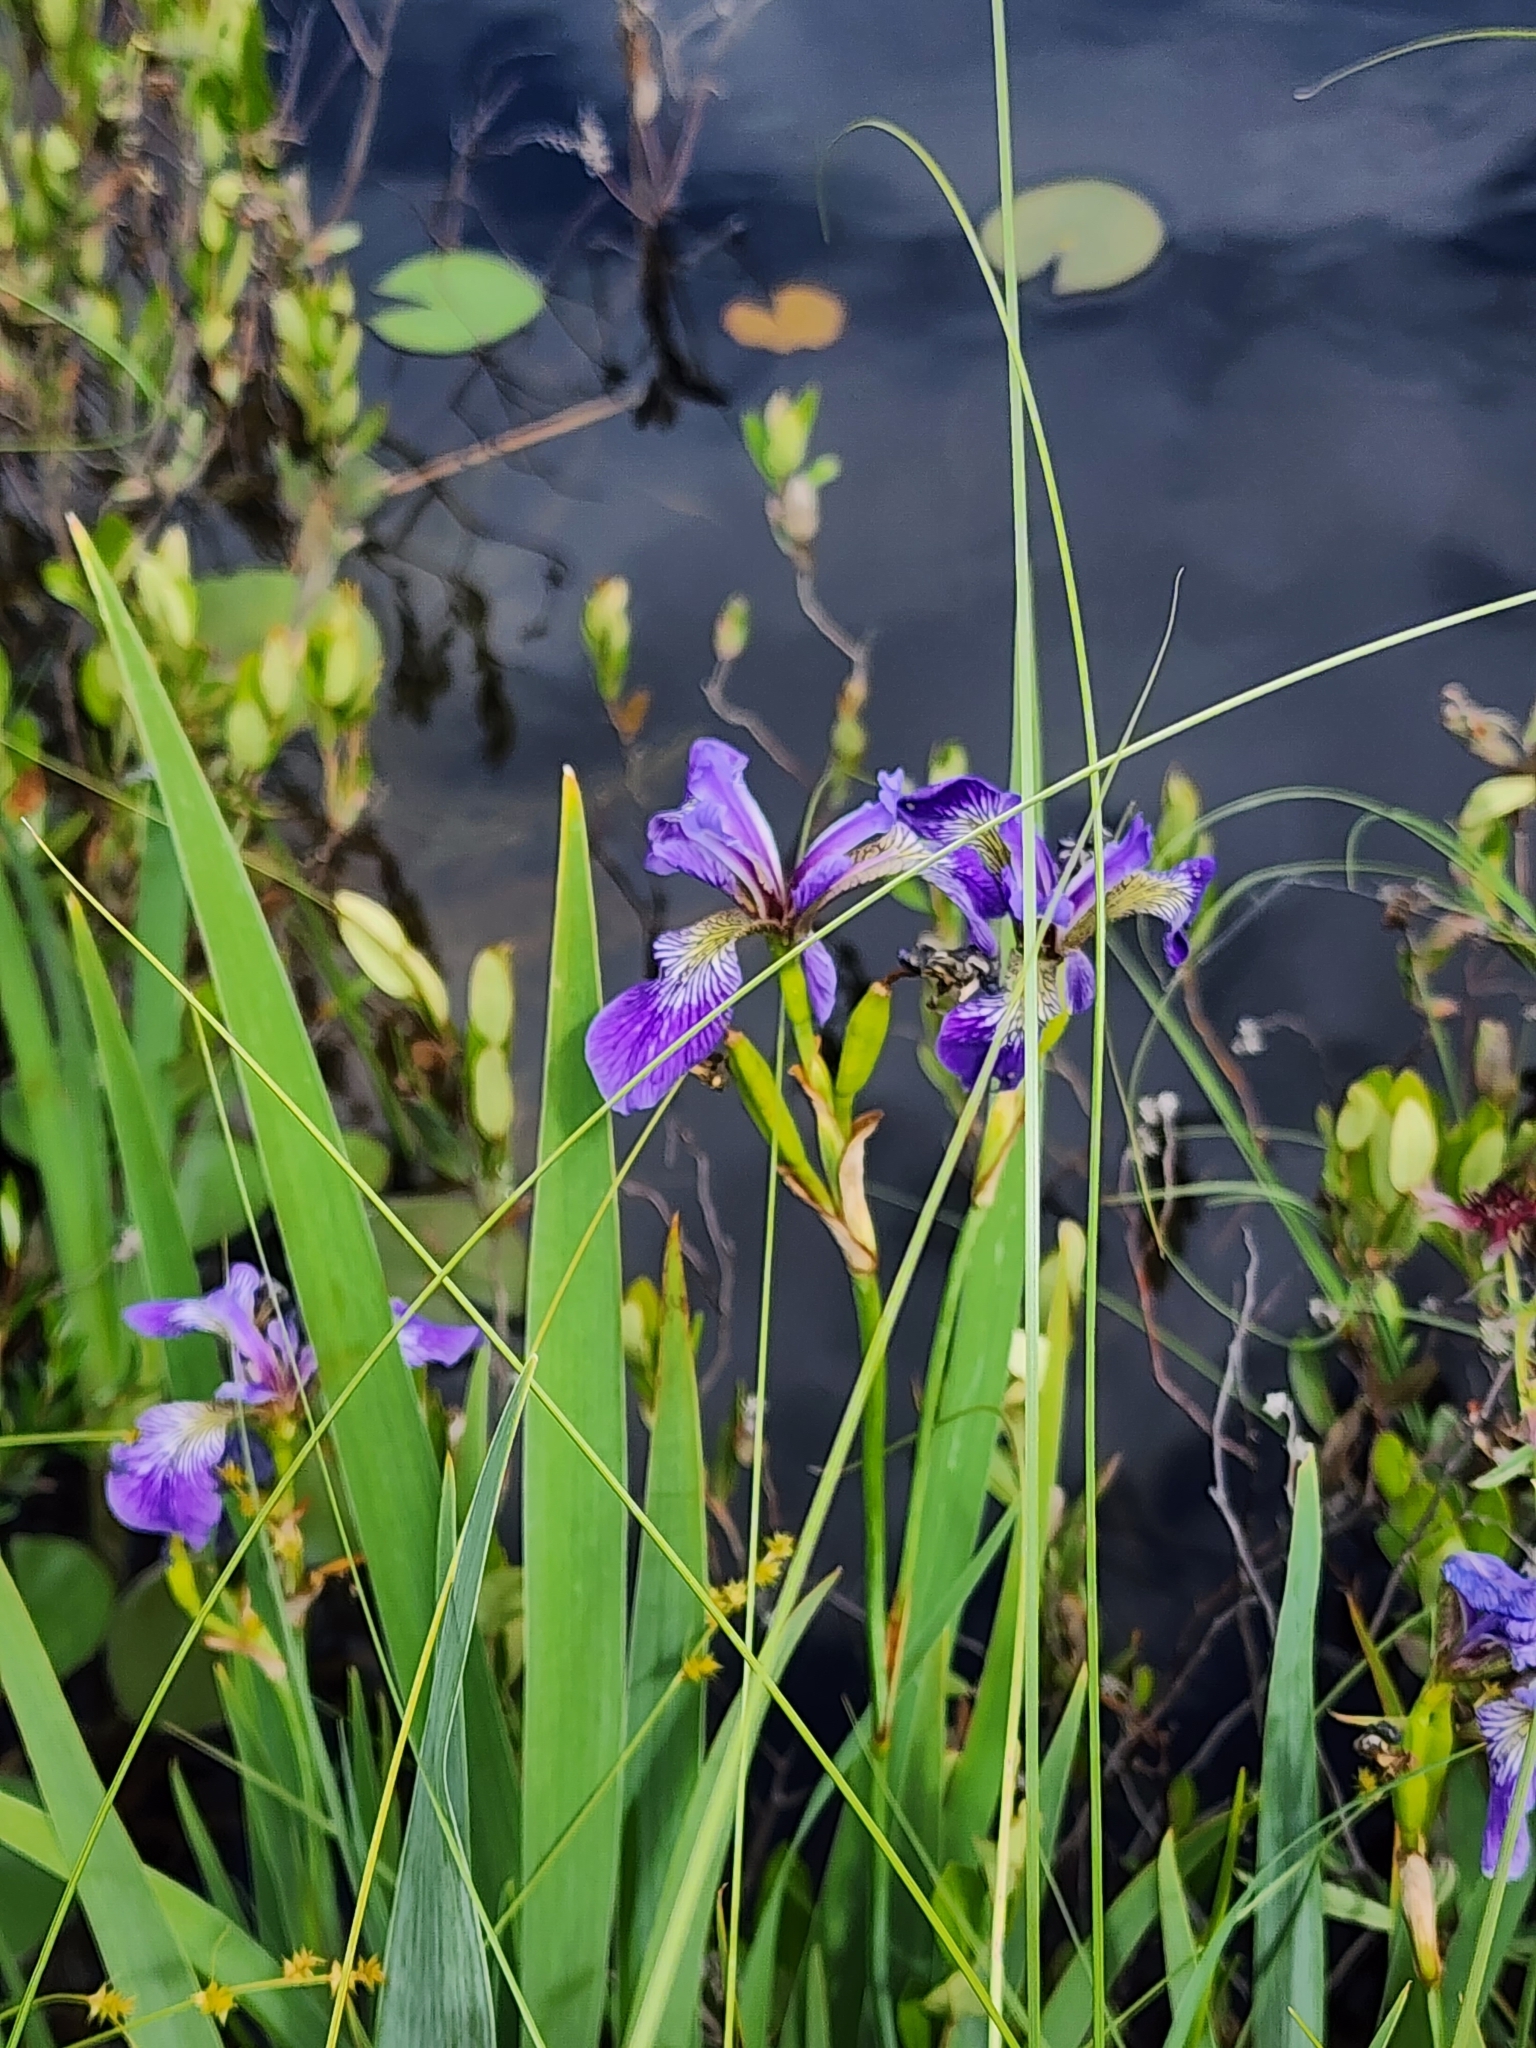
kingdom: Plantae
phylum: Tracheophyta
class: Liliopsida
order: Asparagales
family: Iridaceae
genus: Iris
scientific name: Iris versicolor
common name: Purple iris
